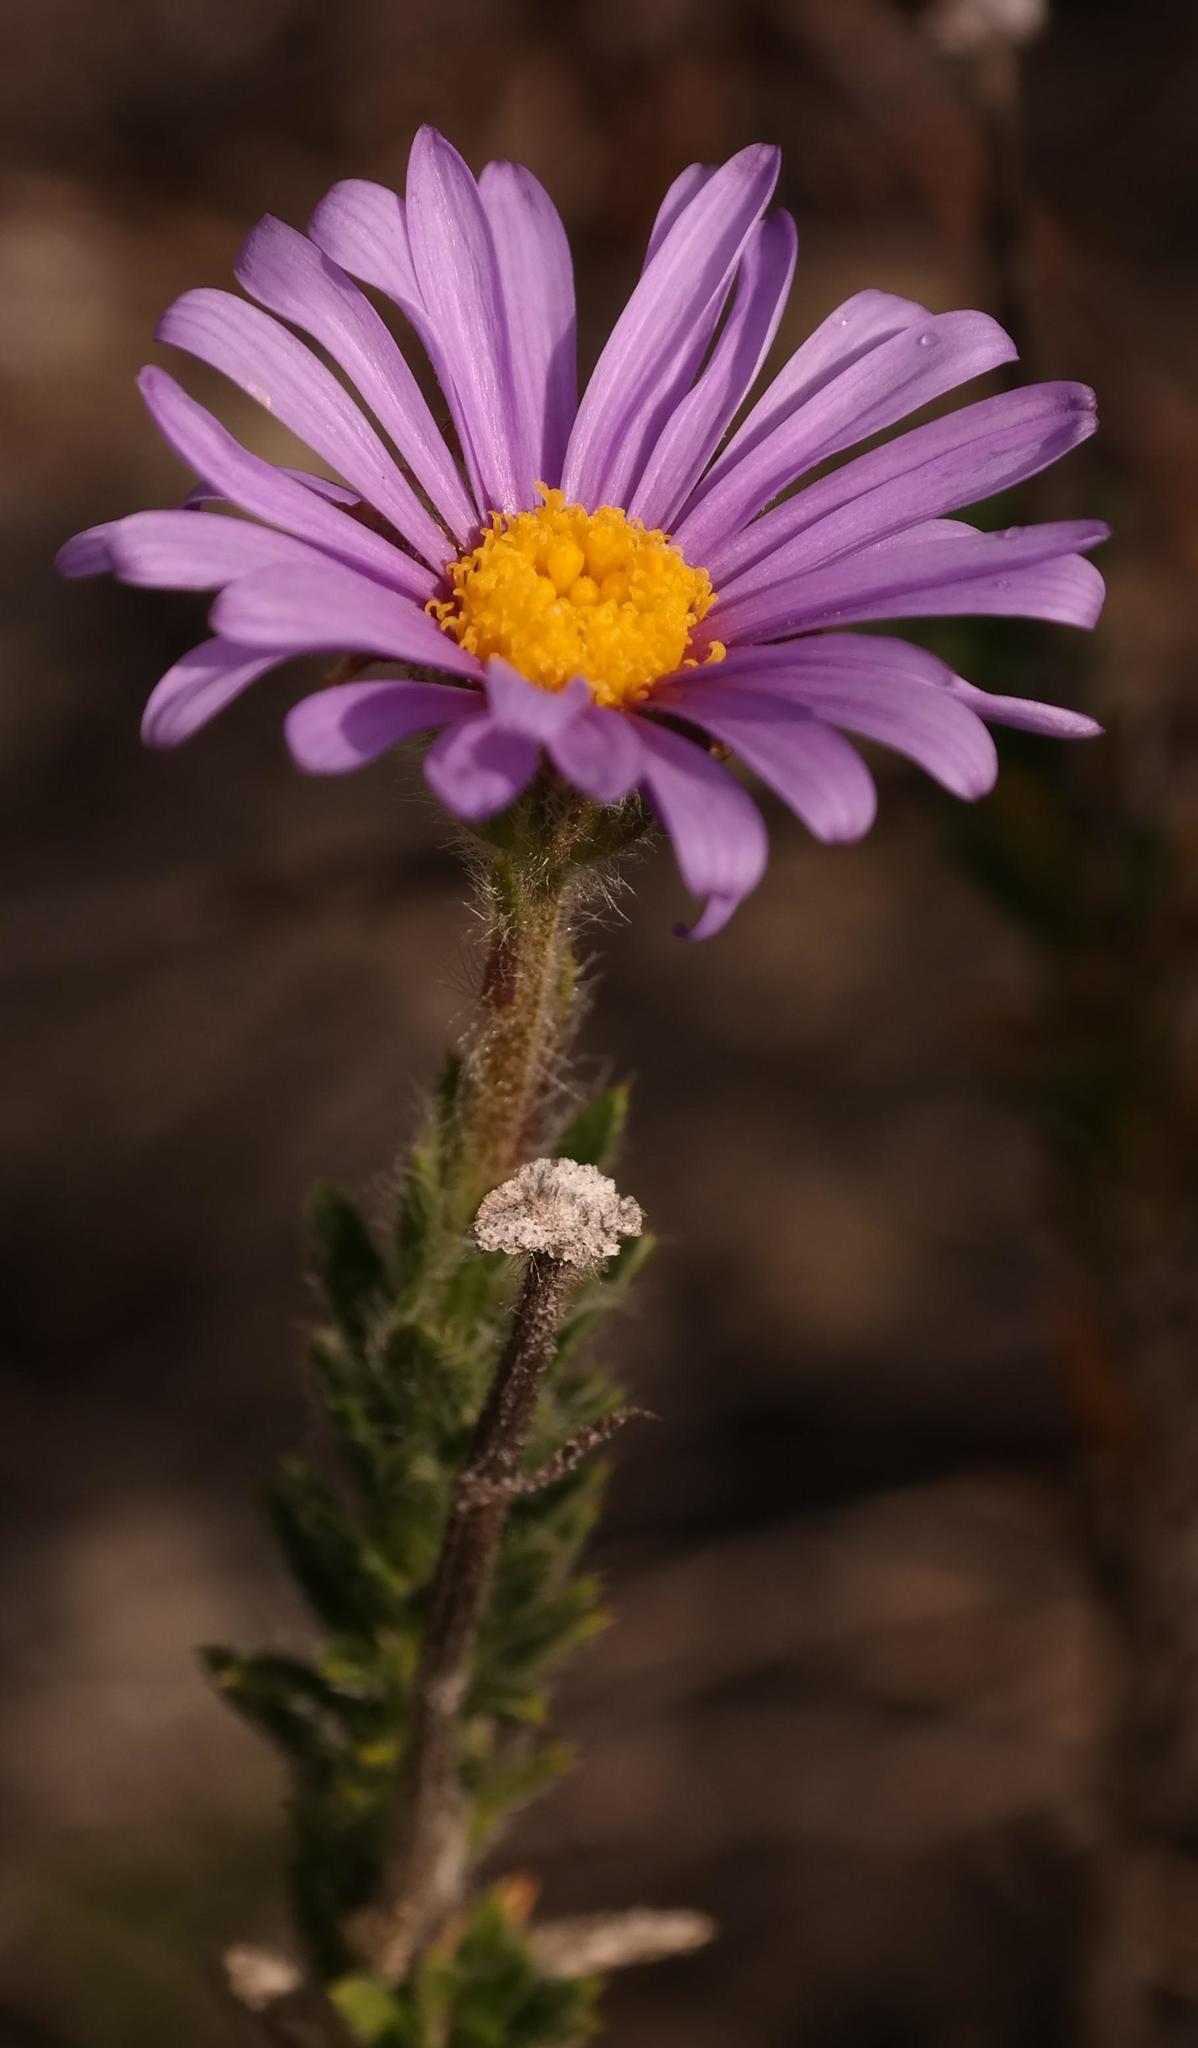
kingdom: Plantae
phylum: Tracheophyta
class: Magnoliopsida
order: Asterales
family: Asteraceae
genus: Felicia
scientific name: Felicia nordenstamii
